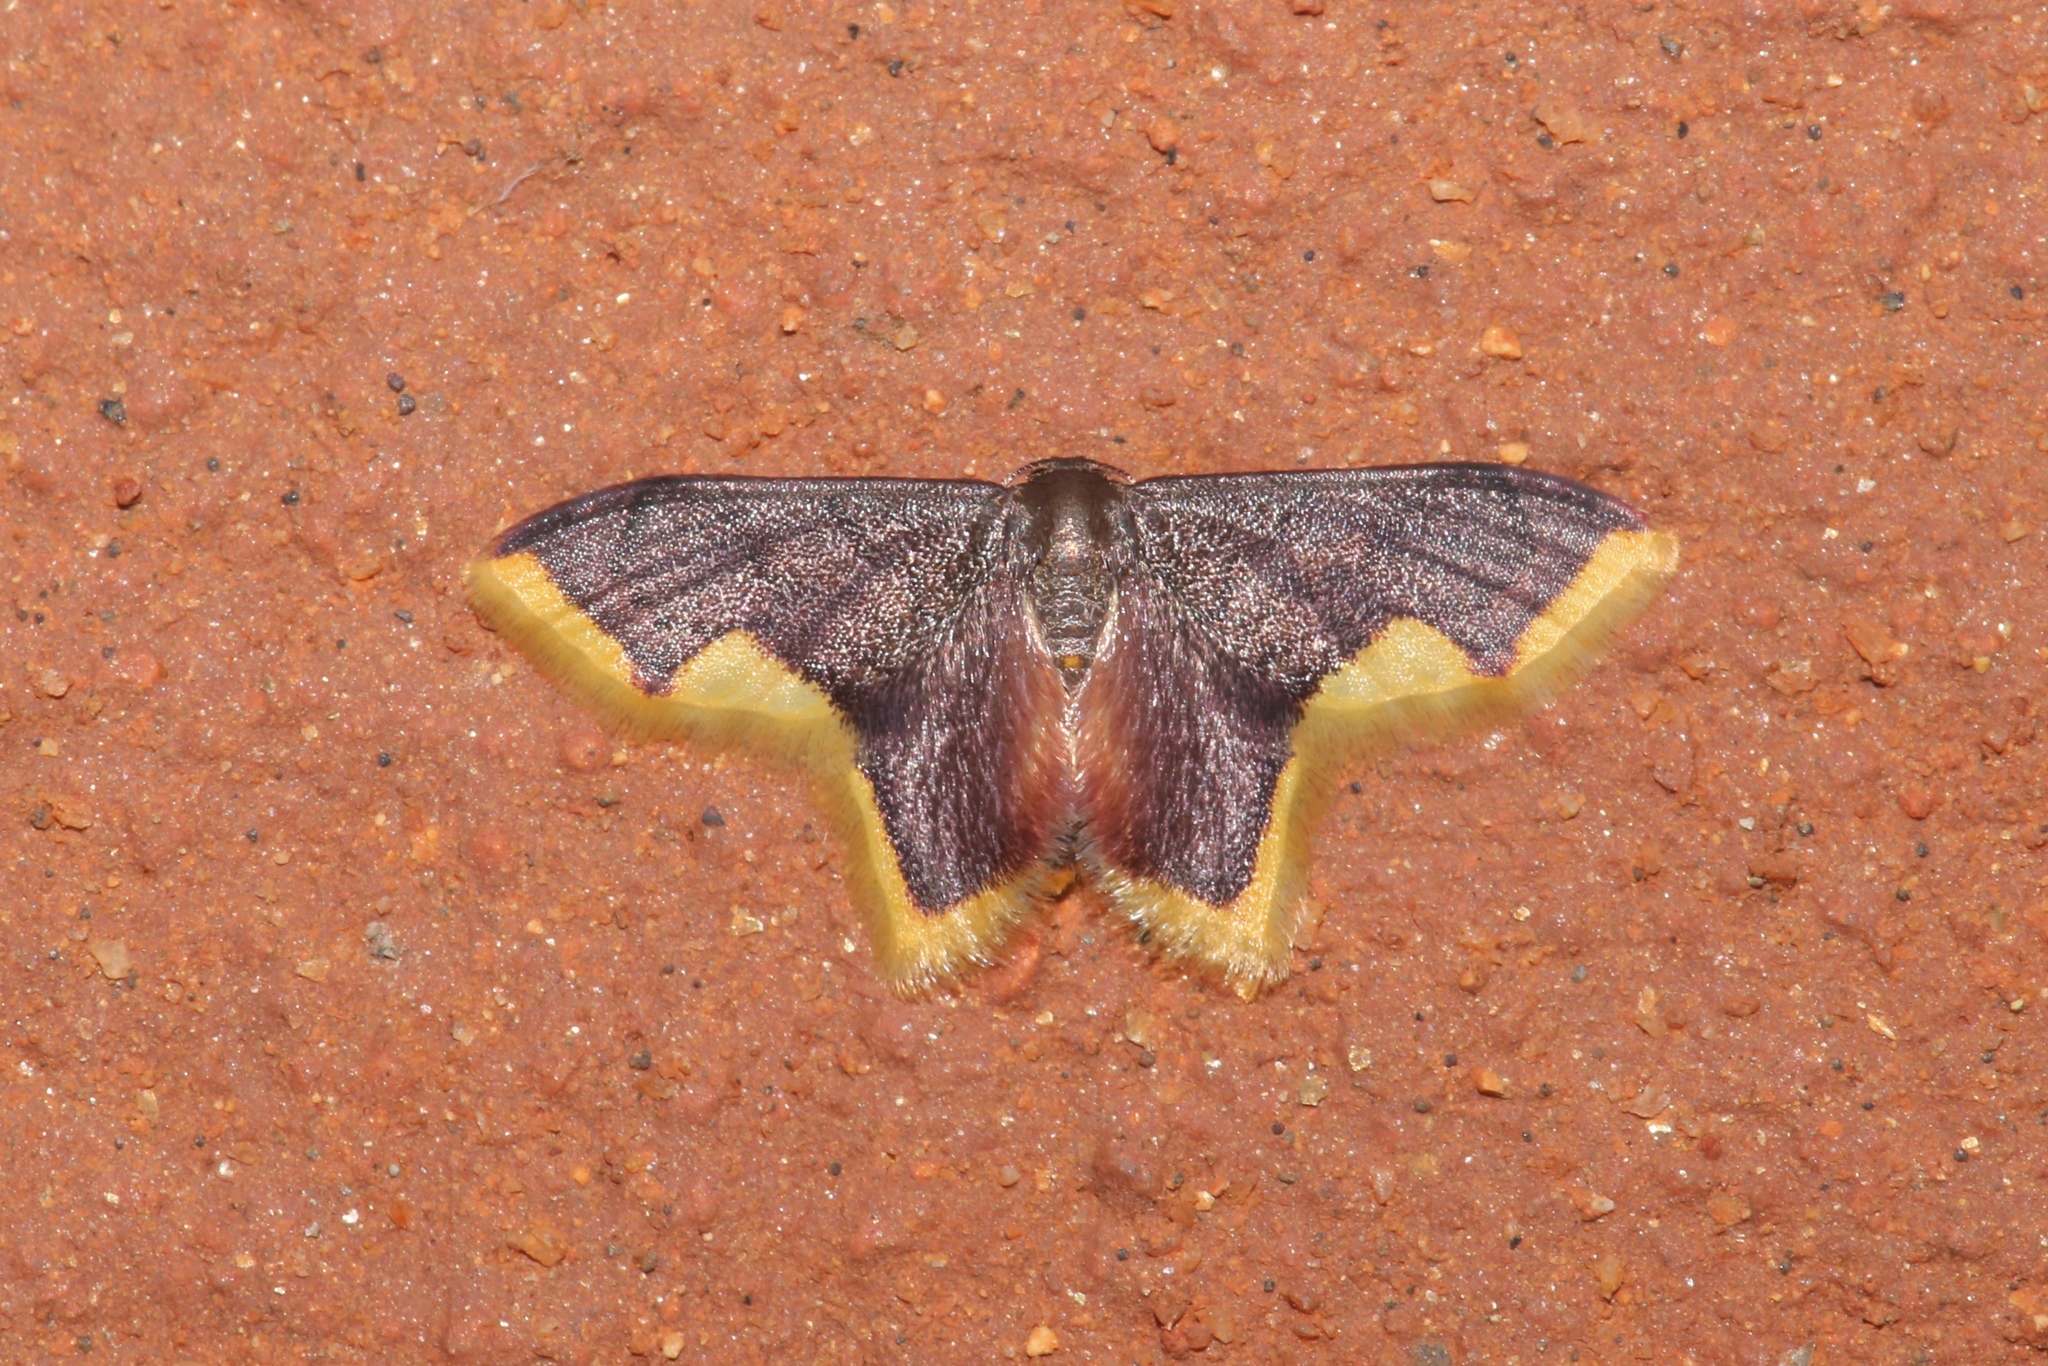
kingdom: Animalia
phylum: Arthropoda
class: Insecta
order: Lepidoptera
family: Geometridae
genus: Lophosis
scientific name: Lophosis labeculata
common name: Stained lophosis moth
